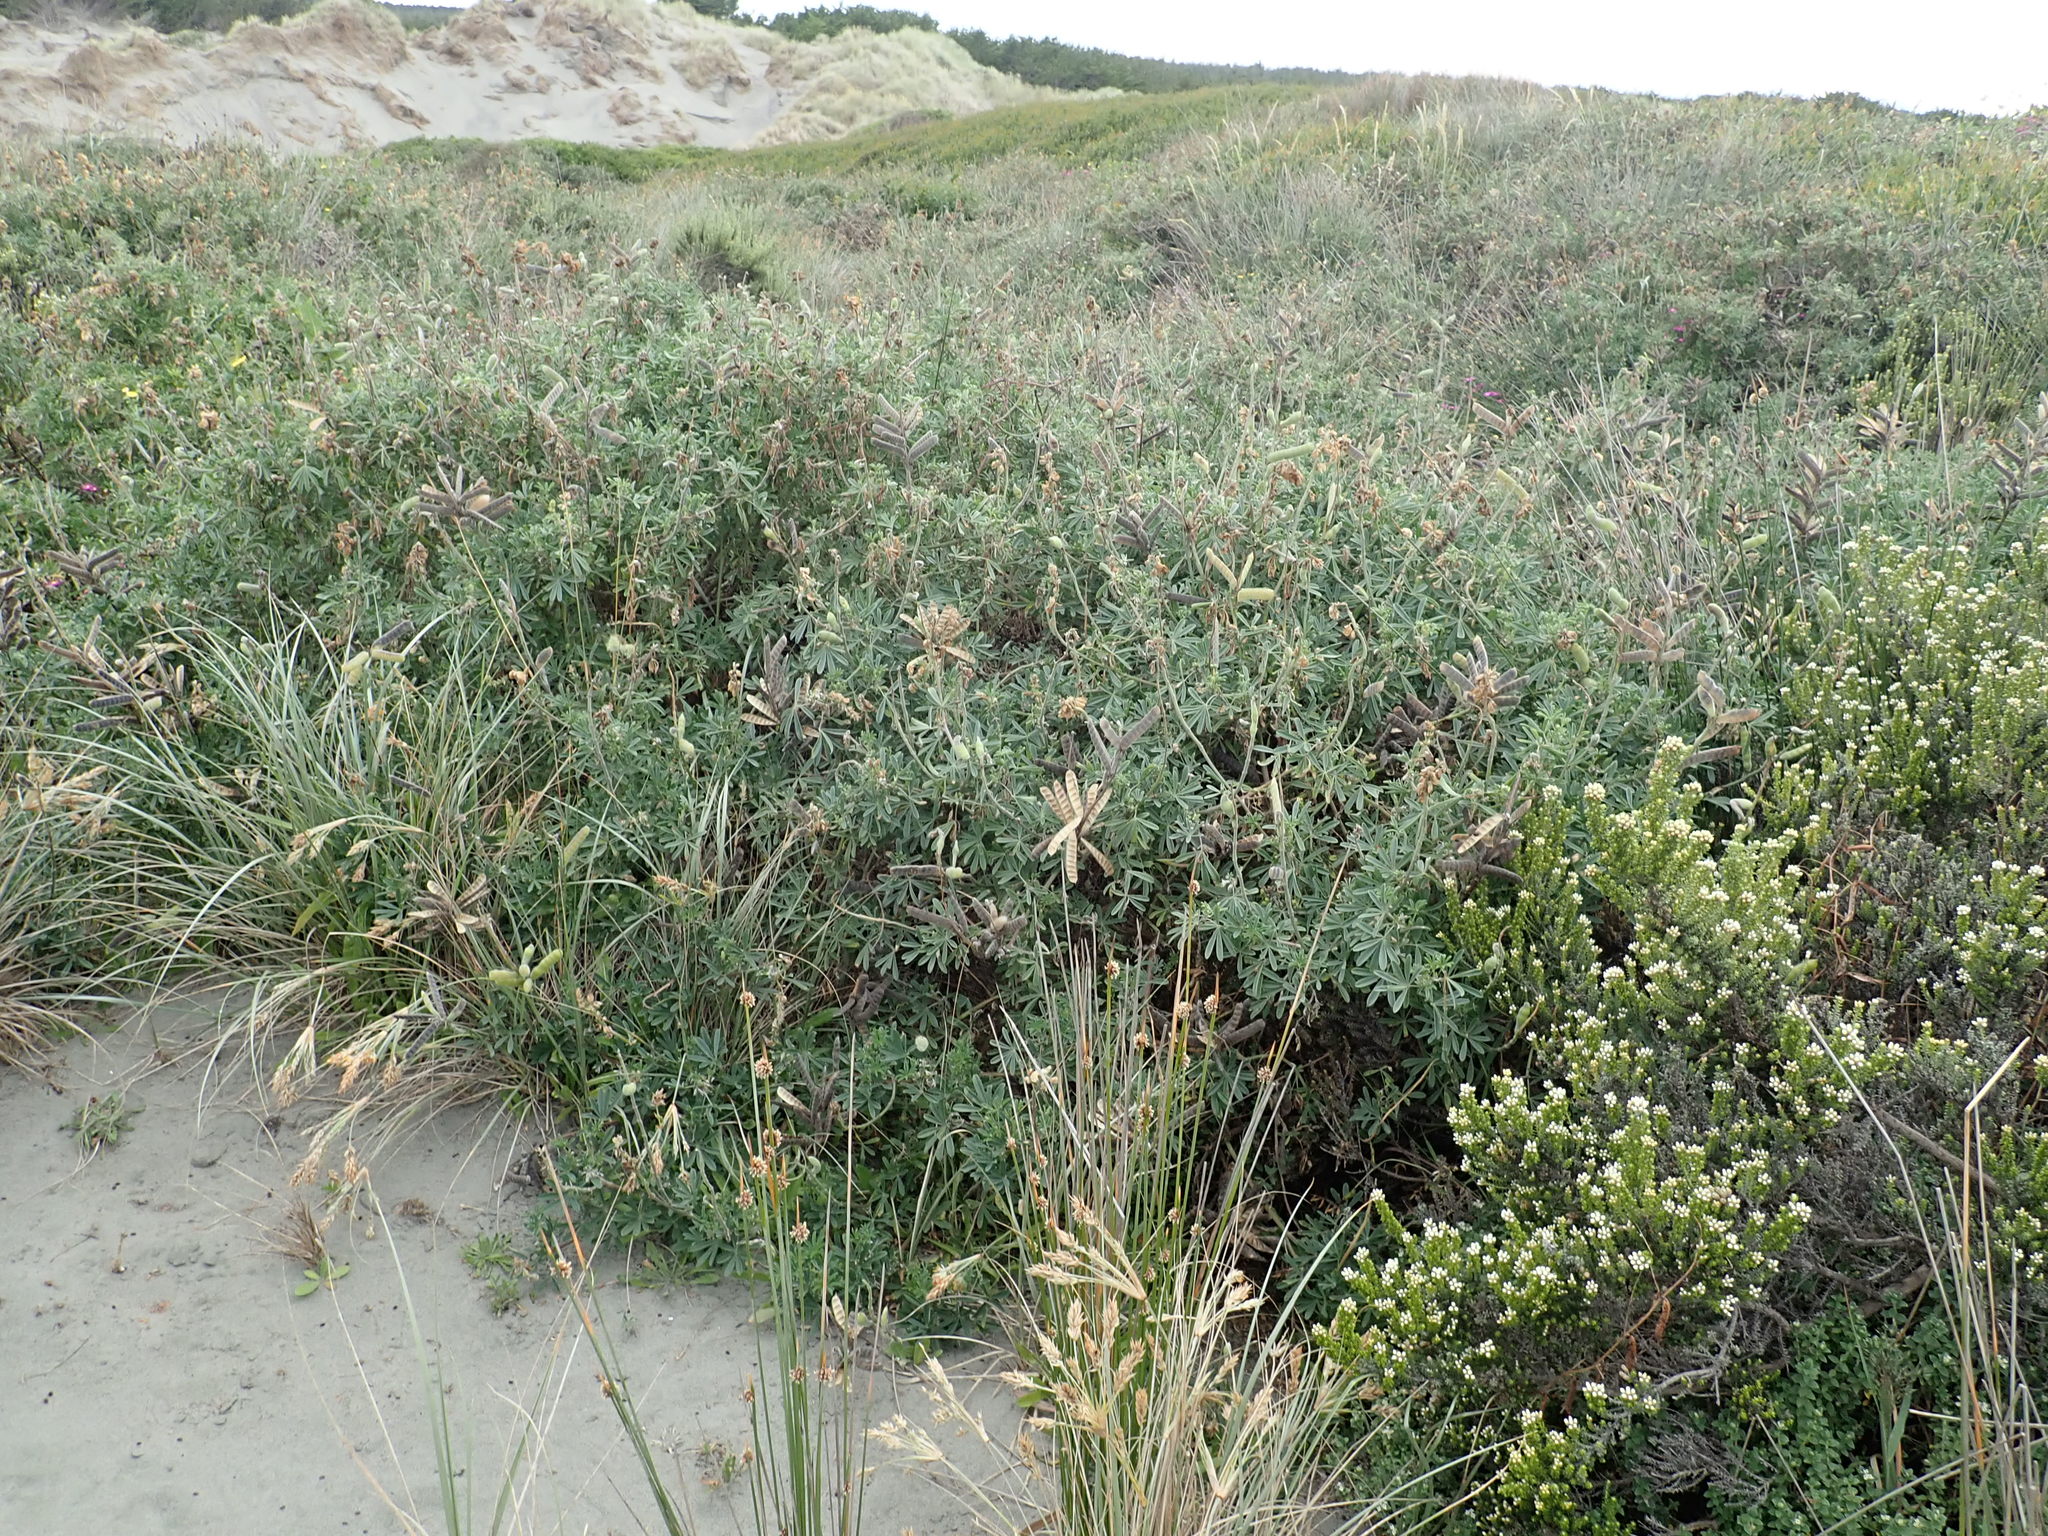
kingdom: Plantae
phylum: Tracheophyta
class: Magnoliopsida
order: Fabales
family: Fabaceae
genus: Lupinus
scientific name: Lupinus arboreus
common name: Yellow bush lupine
